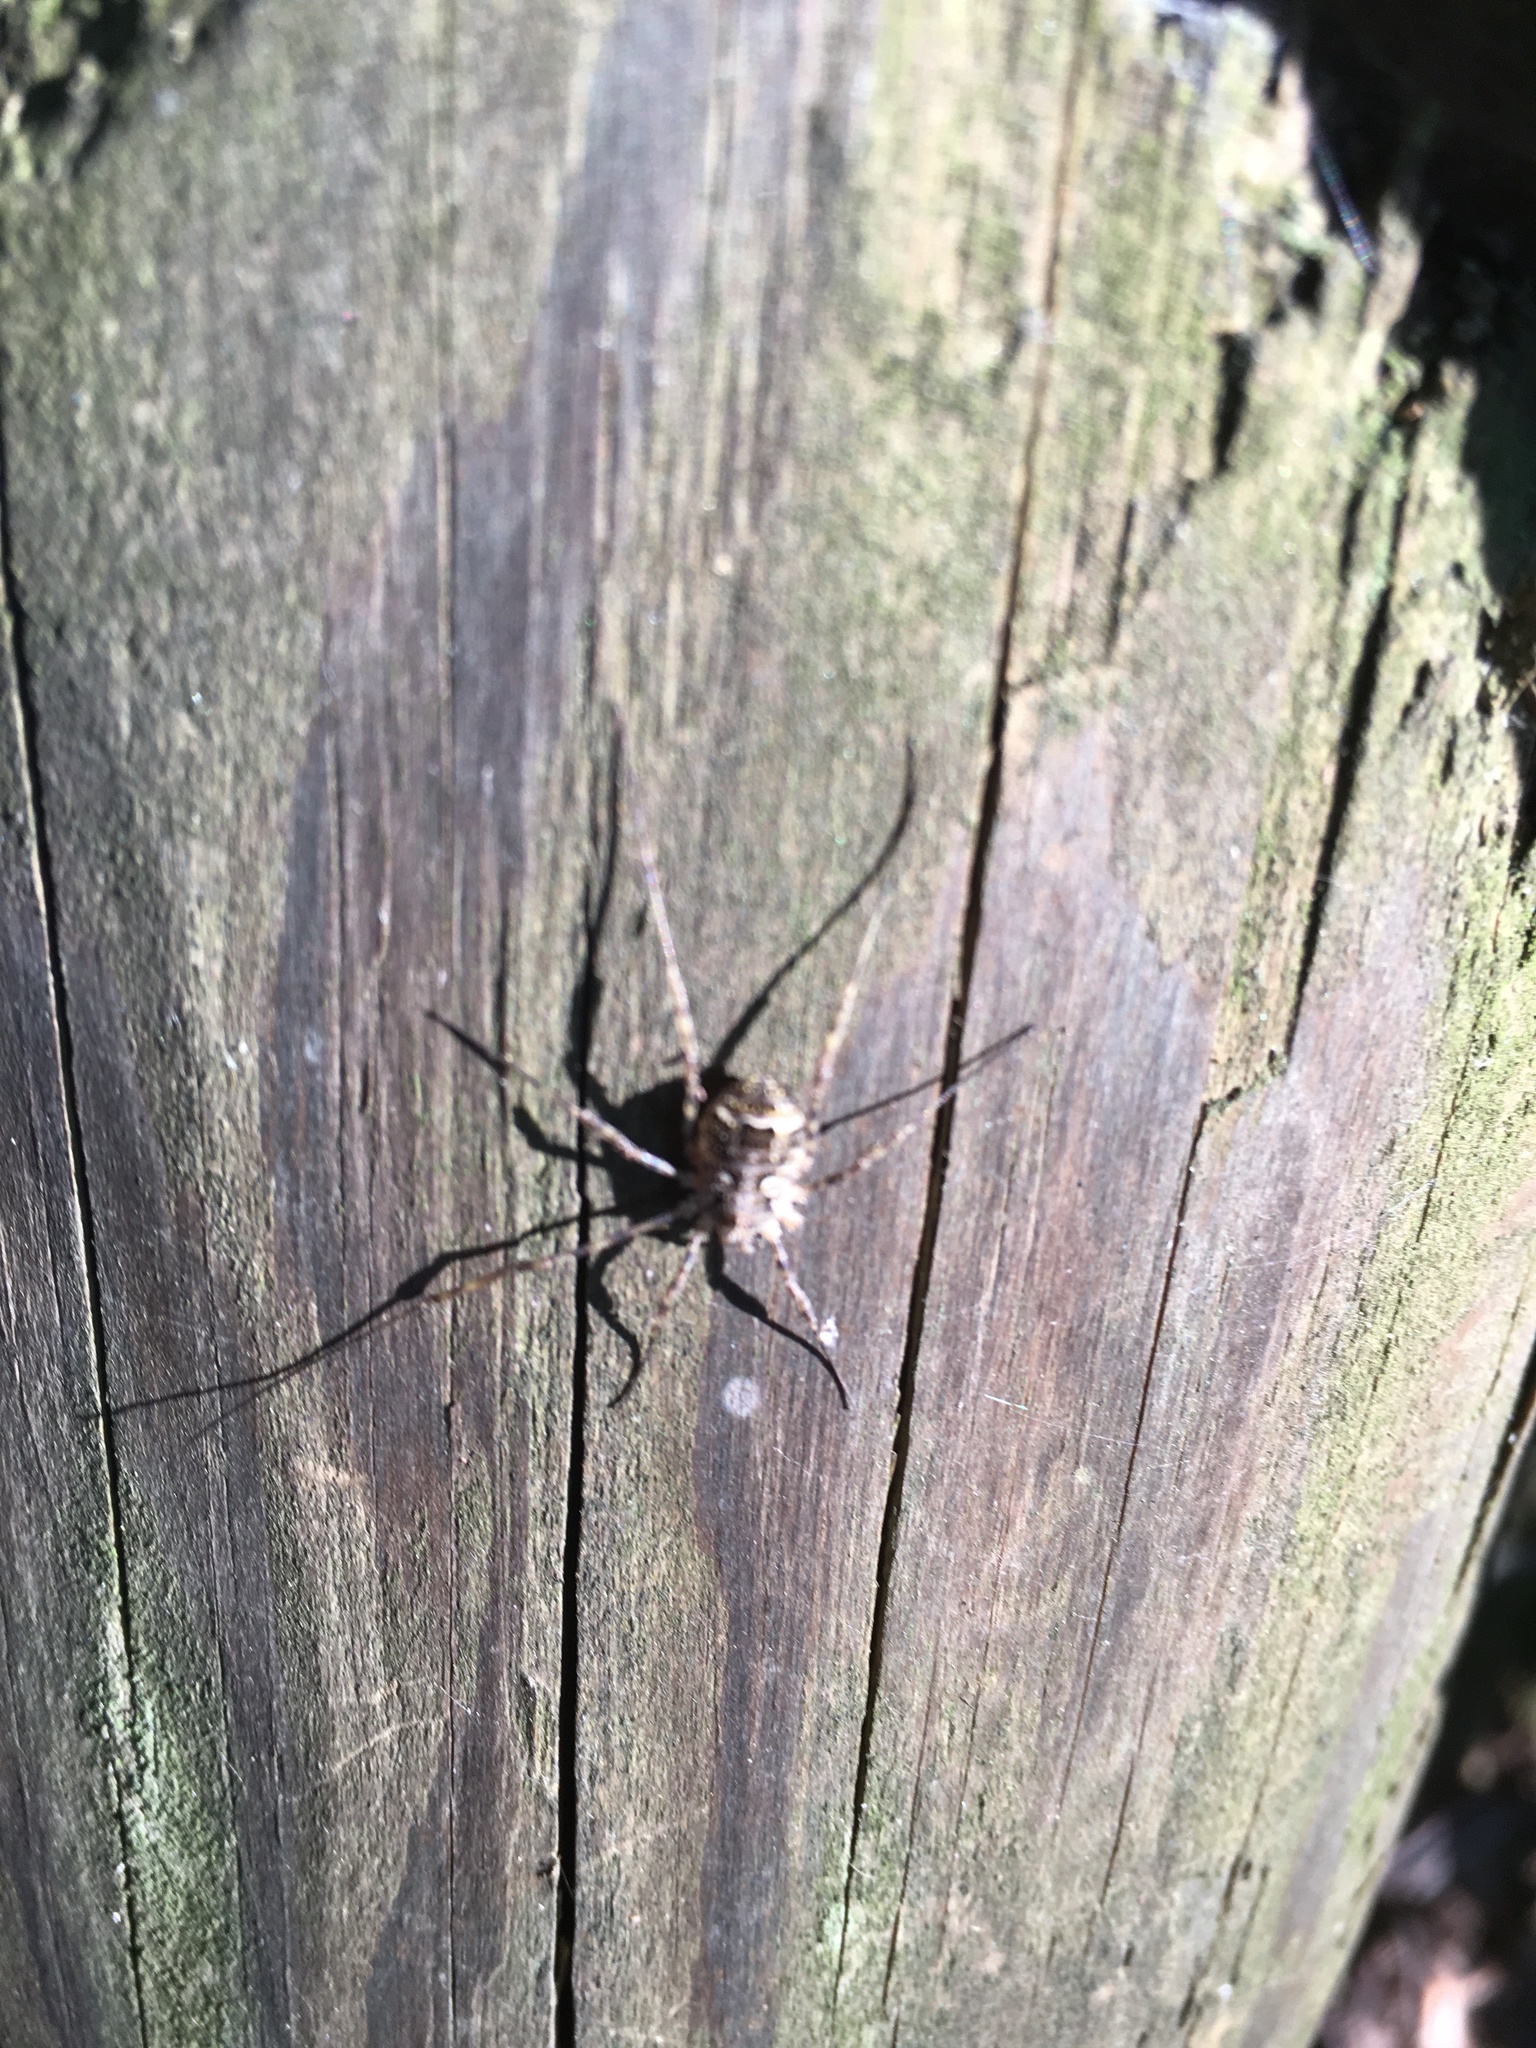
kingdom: Animalia
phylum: Arthropoda
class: Arachnida
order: Opiliones
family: Phalangiidae
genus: Lacinius
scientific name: Lacinius dentiger
